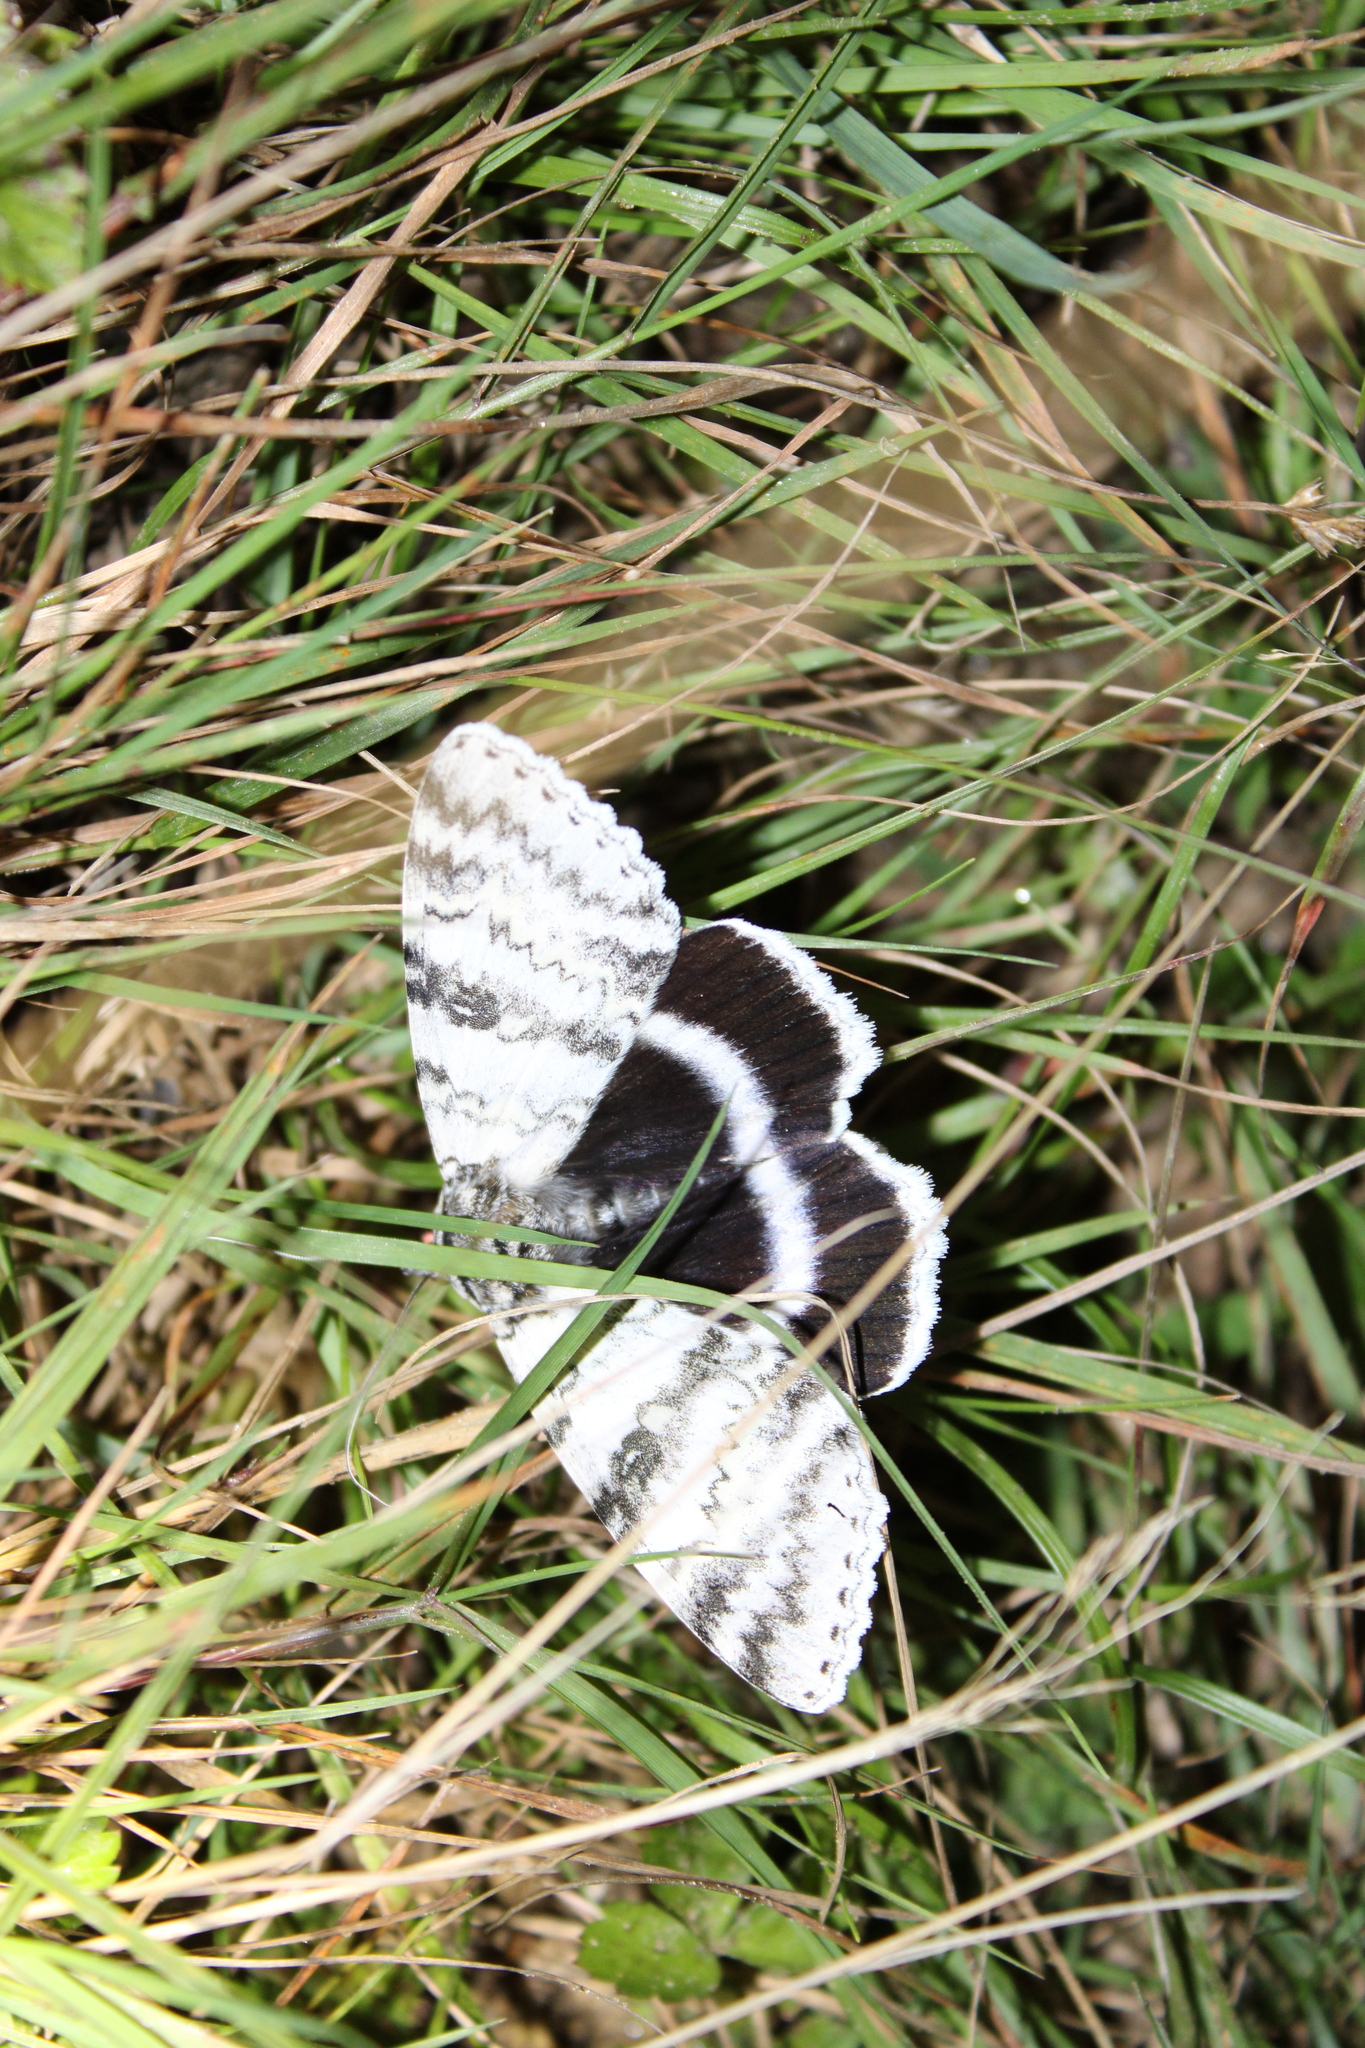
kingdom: Animalia
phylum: Arthropoda
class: Insecta
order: Lepidoptera
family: Erebidae
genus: Catocala
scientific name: Catocala relicta
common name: White underwing
